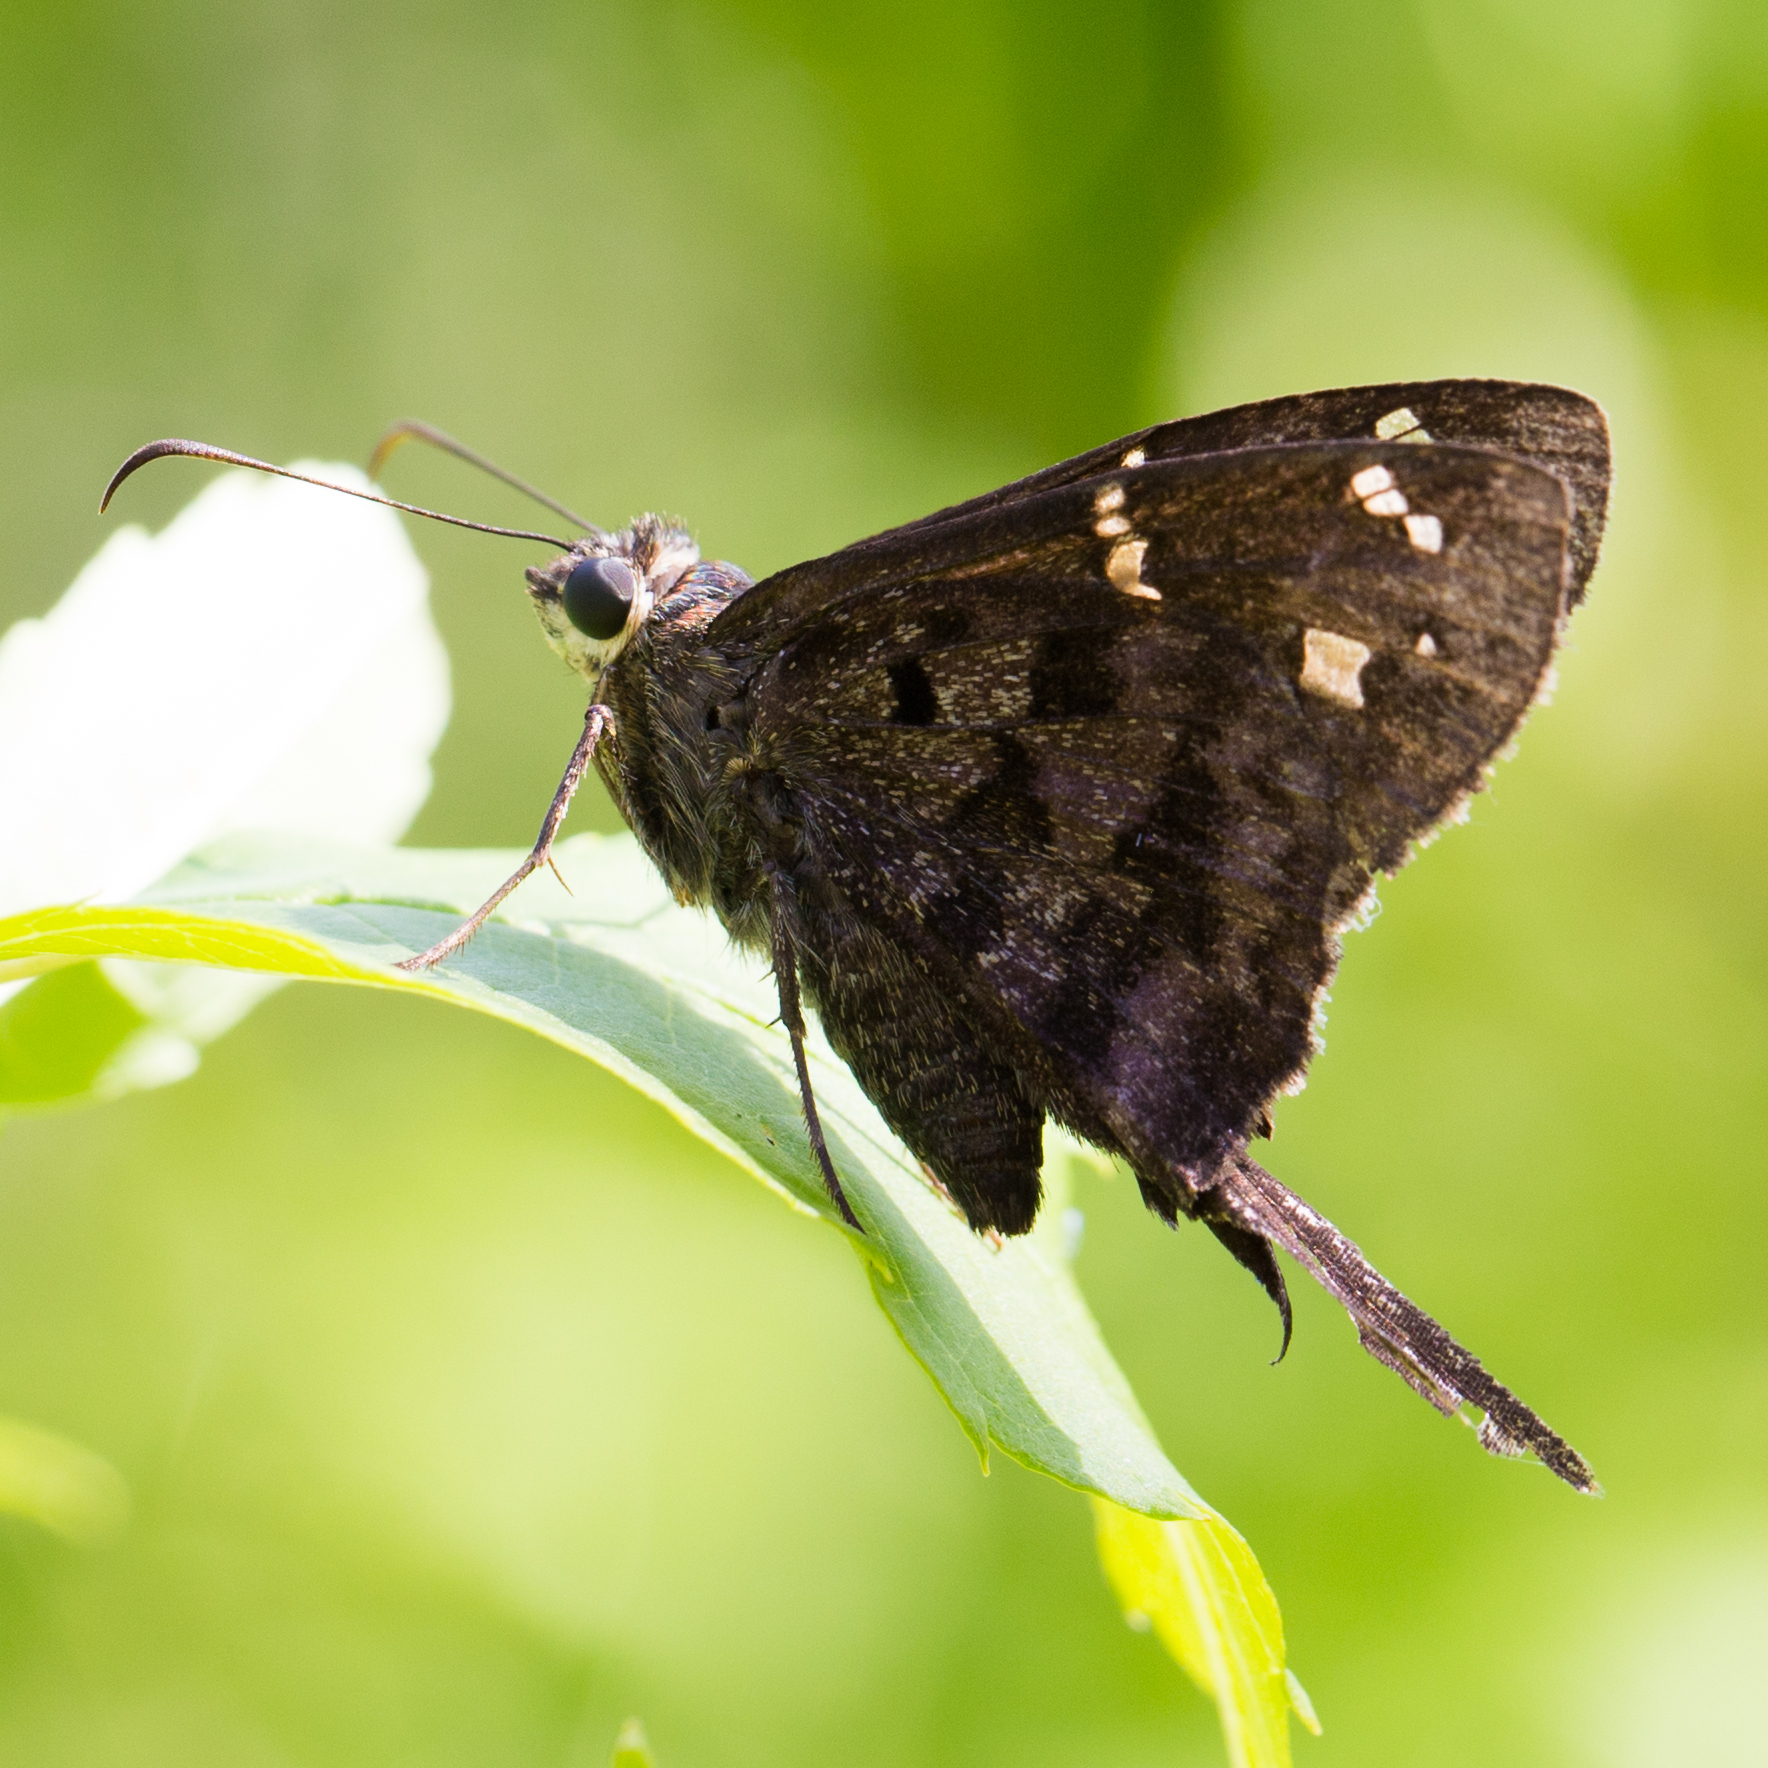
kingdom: Animalia
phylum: Arthropoda
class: Insecta
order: Lepidoptera
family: Hesperiidae
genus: Thorybes
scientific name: Thorybes
